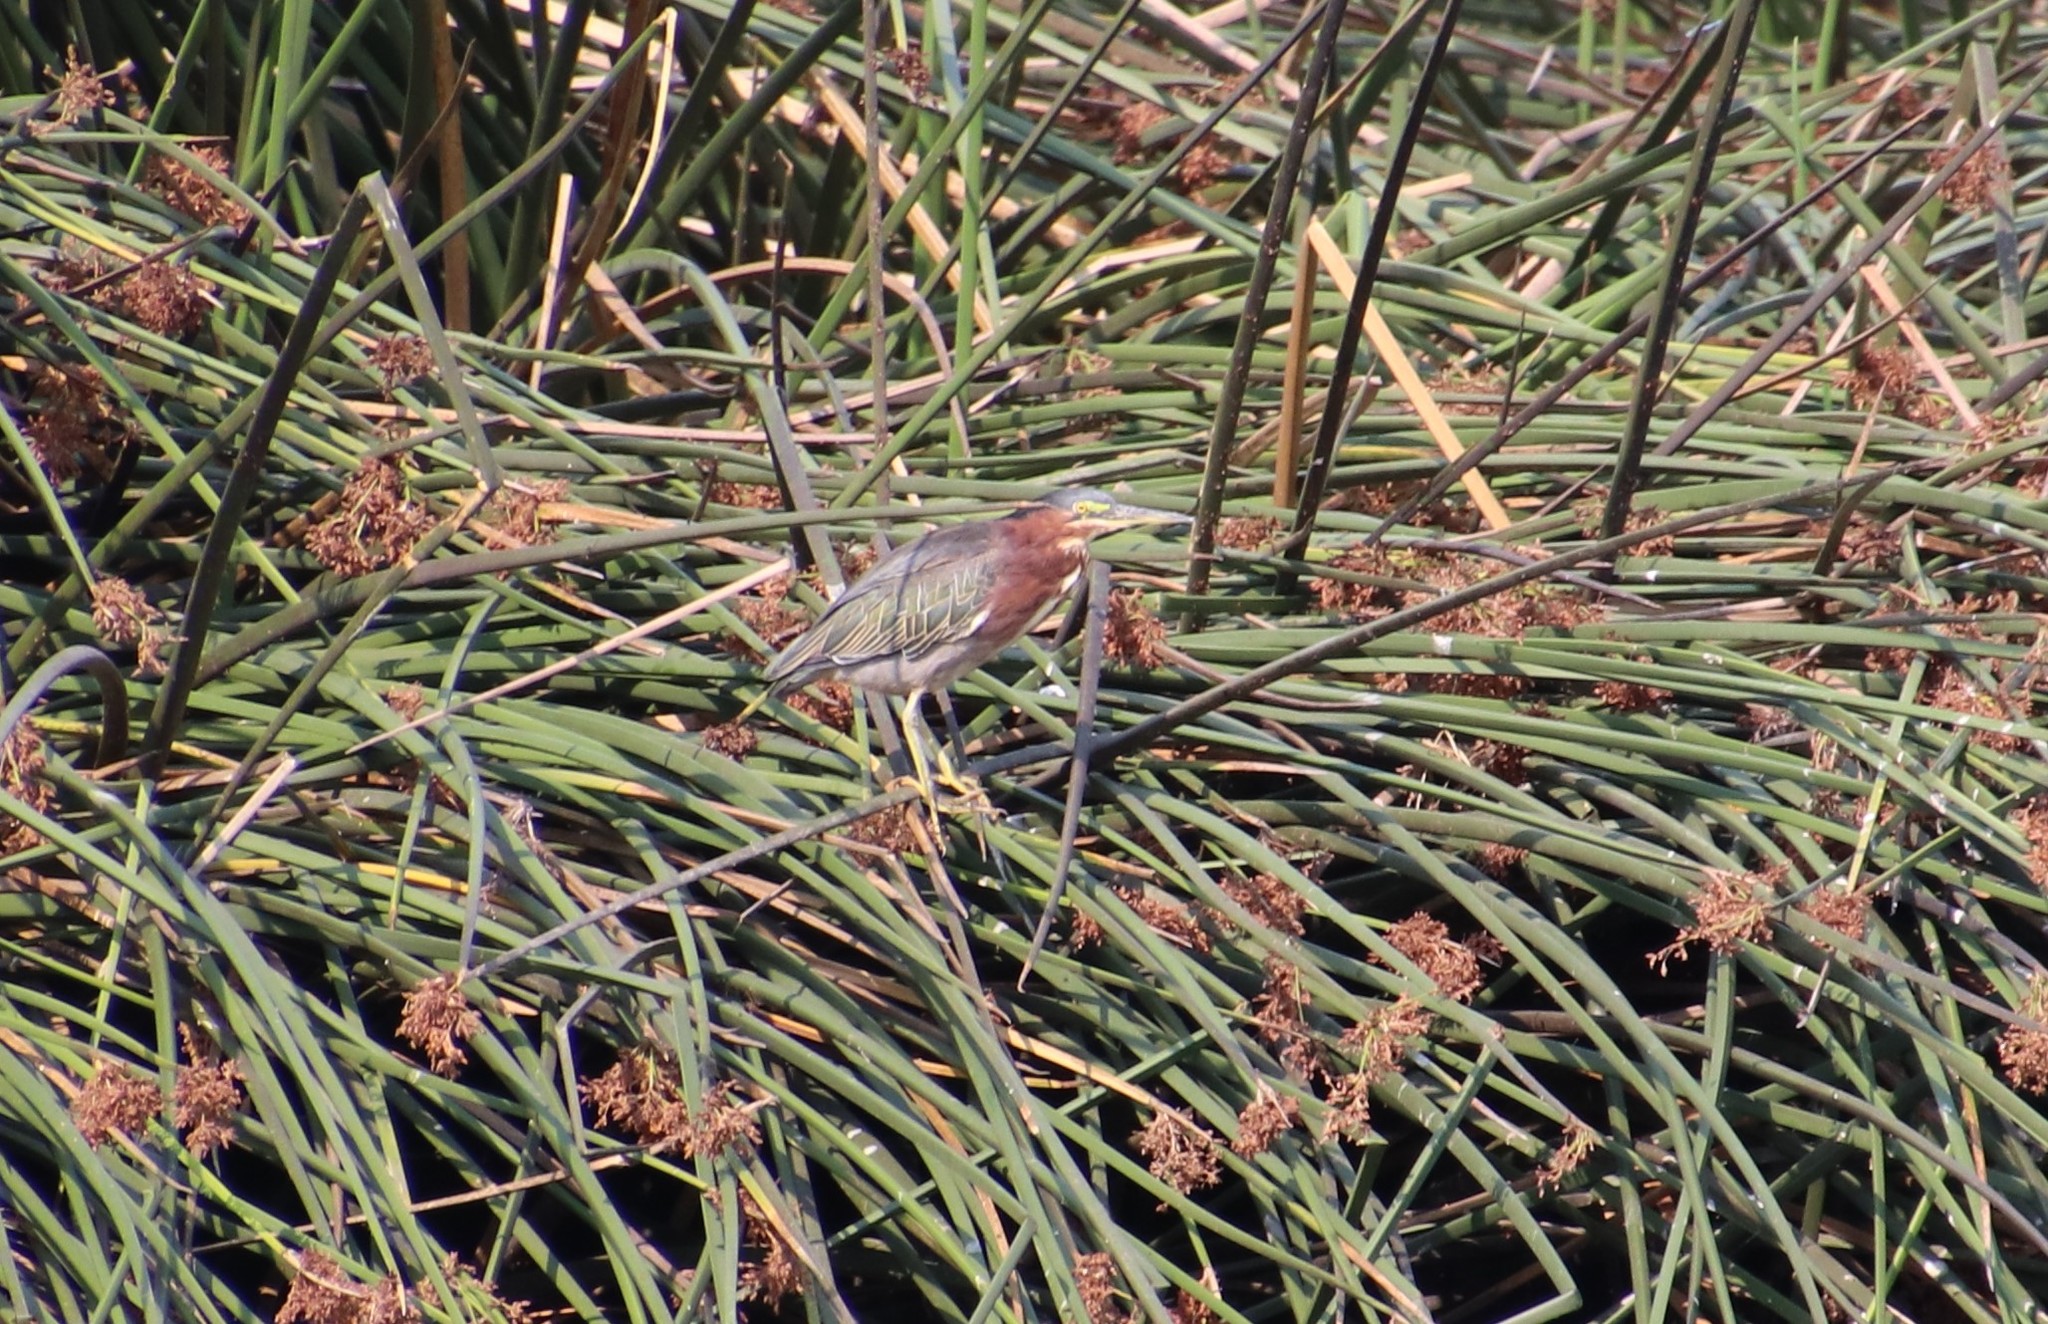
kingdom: Animalia
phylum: Chordata
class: Aves
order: Pelecaniformes
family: Ardeidae
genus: Butorides
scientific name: Butorides virescens
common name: Green heron
